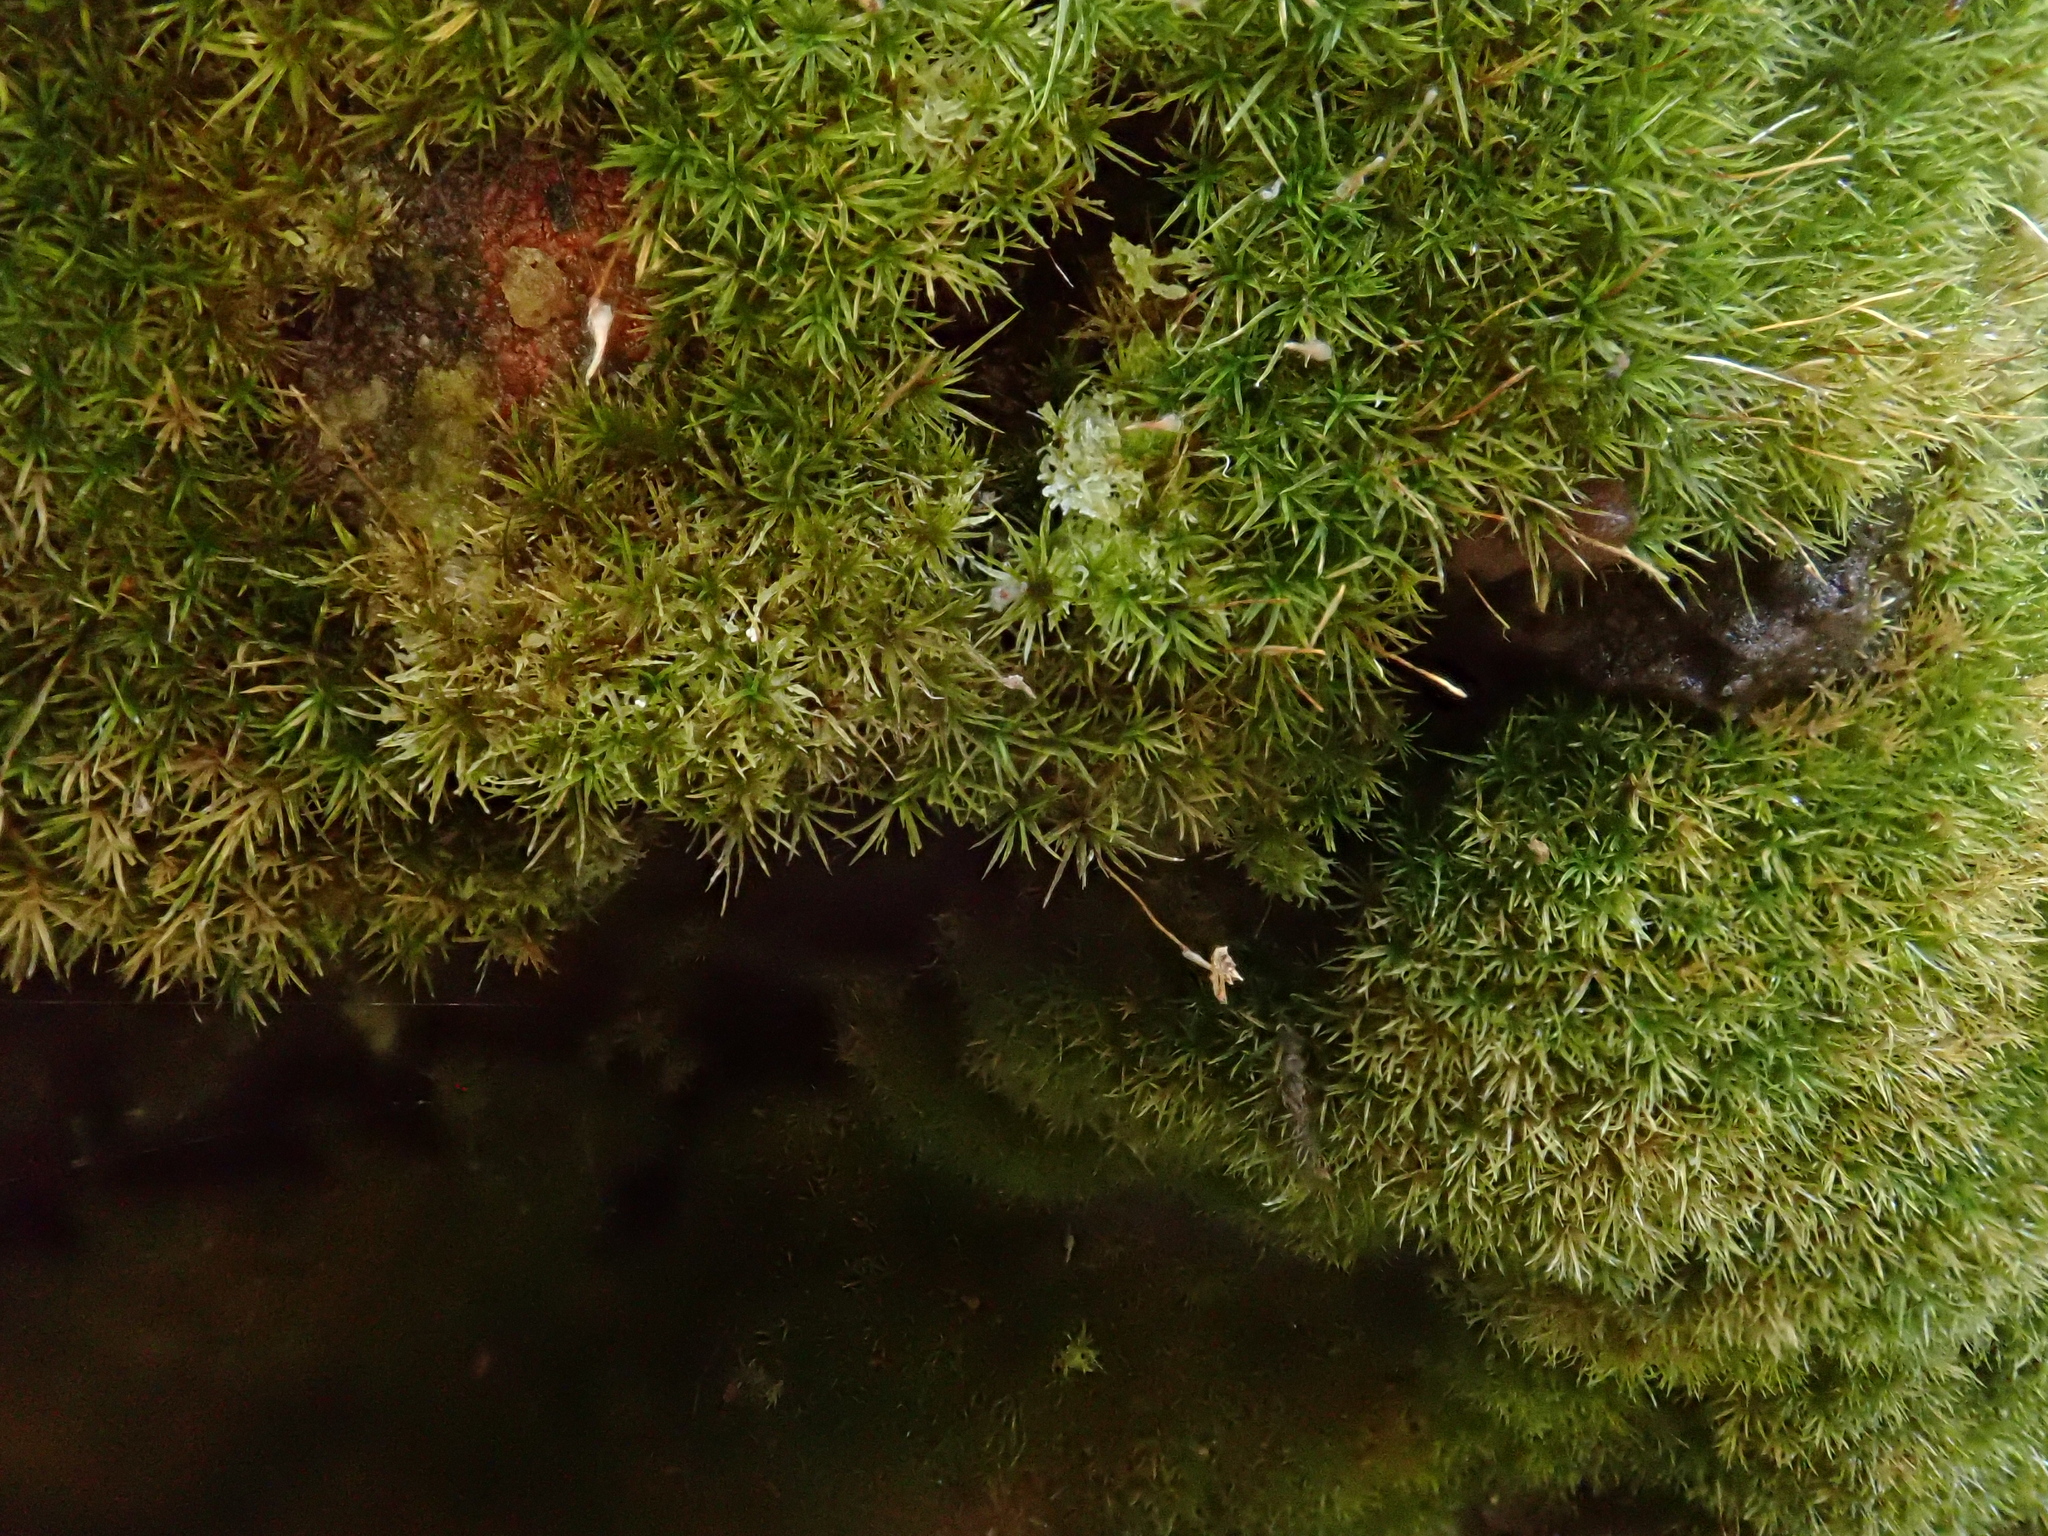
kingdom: Plantae
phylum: Bryophyta
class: Bryopsida
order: Pottiales
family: Pottiaceae
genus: Eucladium
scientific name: Eucladium verticillatum
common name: Whorled tufa-moss
